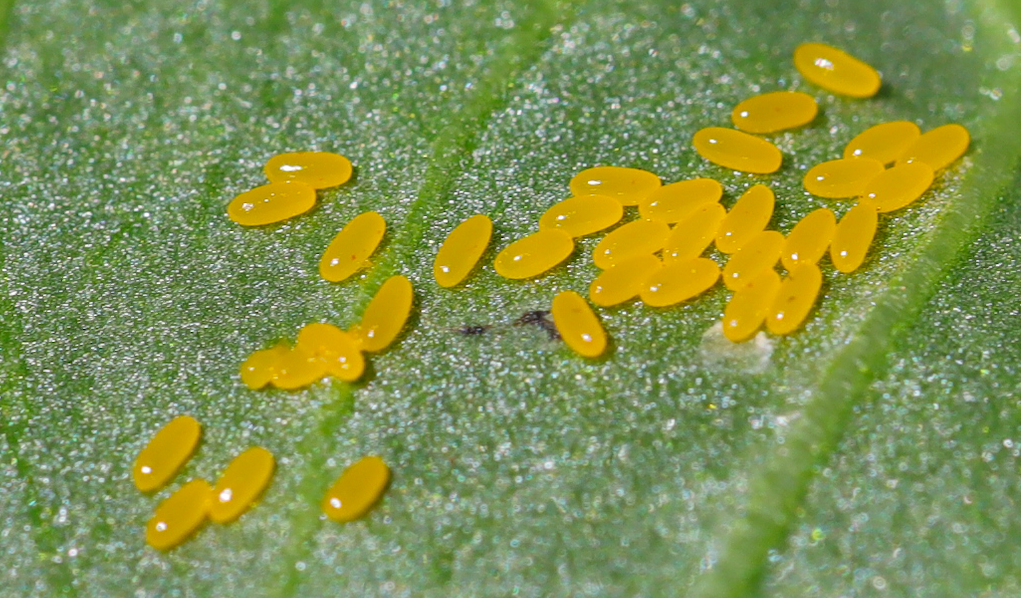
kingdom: Animalia
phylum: Arthropoda
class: Insecta
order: Coleoptera
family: Chrysomelidae
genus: Gastrophysa
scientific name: Gastrophysa cyanea
